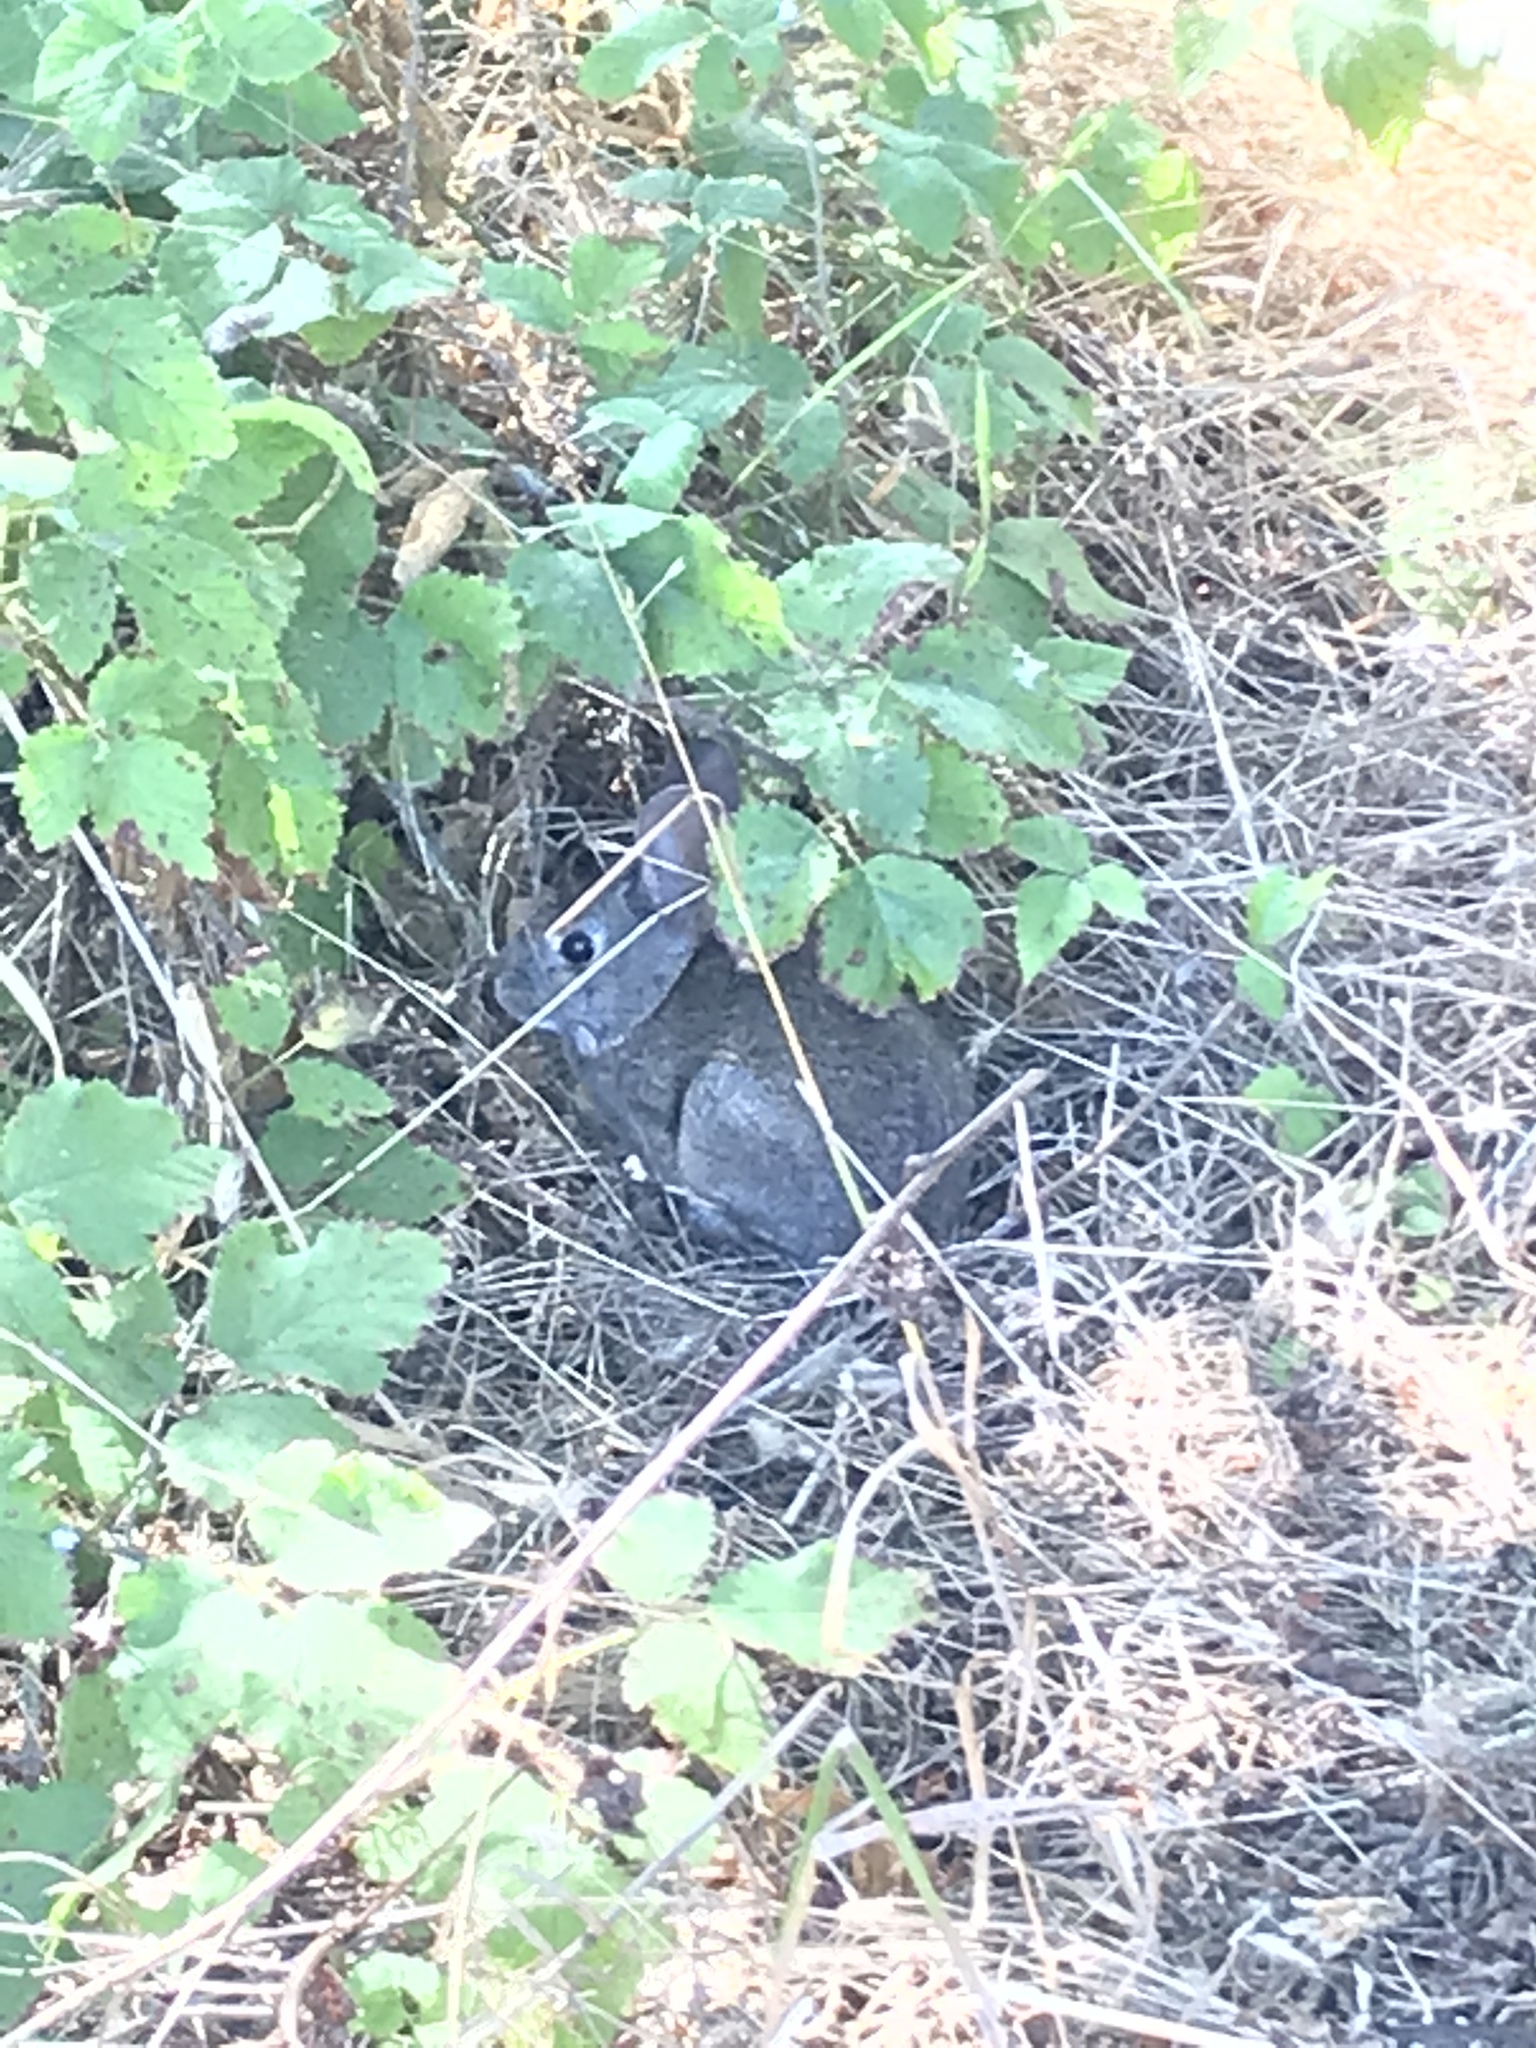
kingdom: Animalia
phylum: Chordata
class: Mammalia
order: Lagomorpha
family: Leporidae
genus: Sylvilagus
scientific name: Sylvilagus bachmani
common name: Brush rabbit
